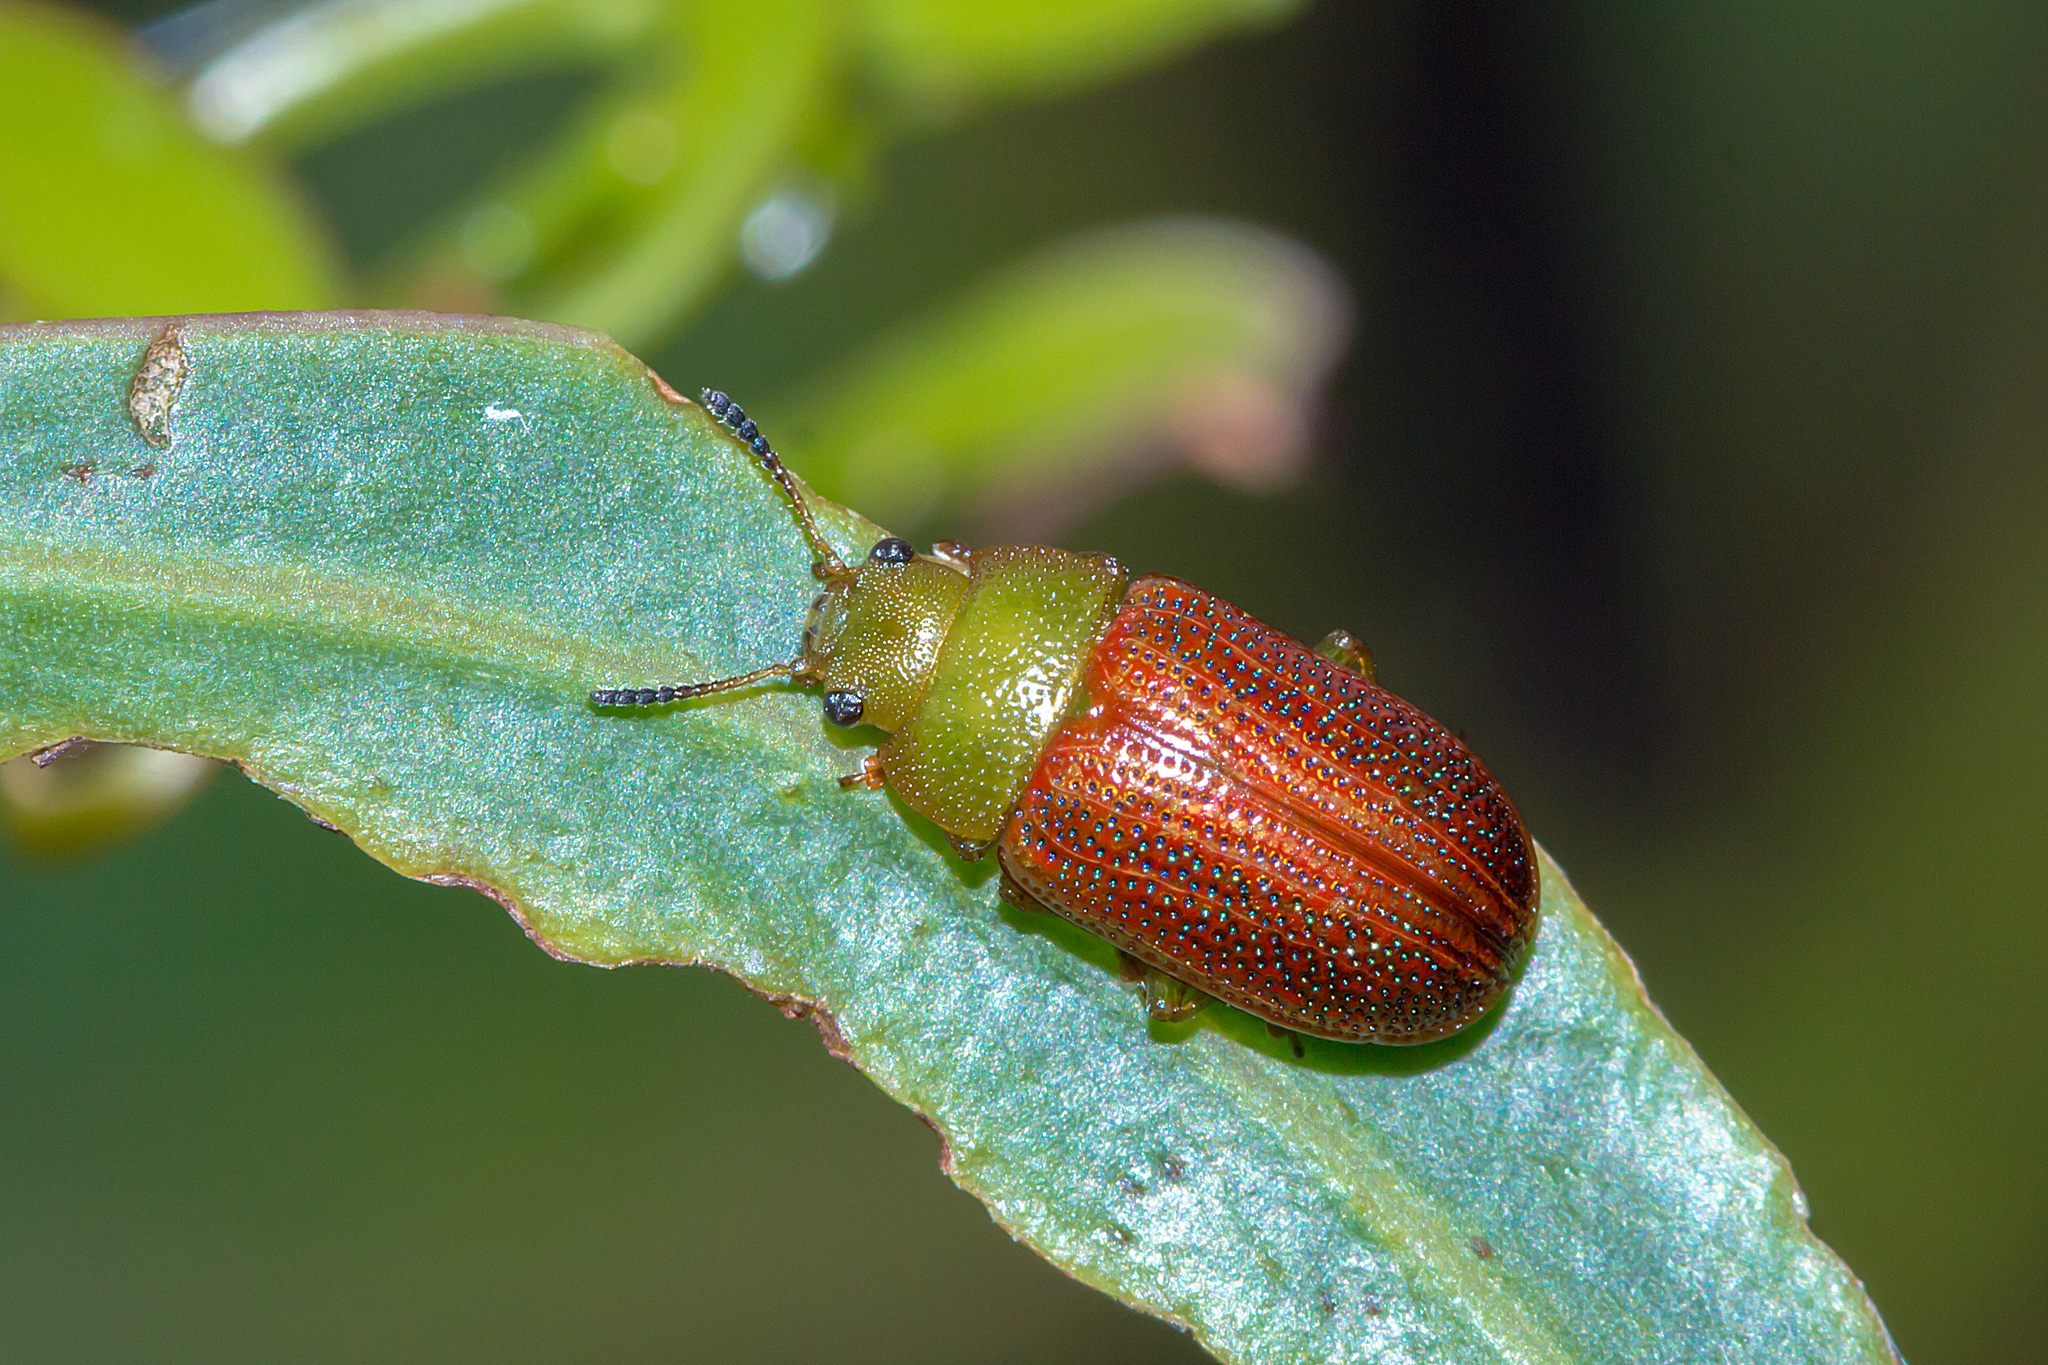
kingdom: Animalia
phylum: Arthropoda
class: Insecta
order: Coleoptera
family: Chrysomelidae
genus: Calomela
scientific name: Calomela
